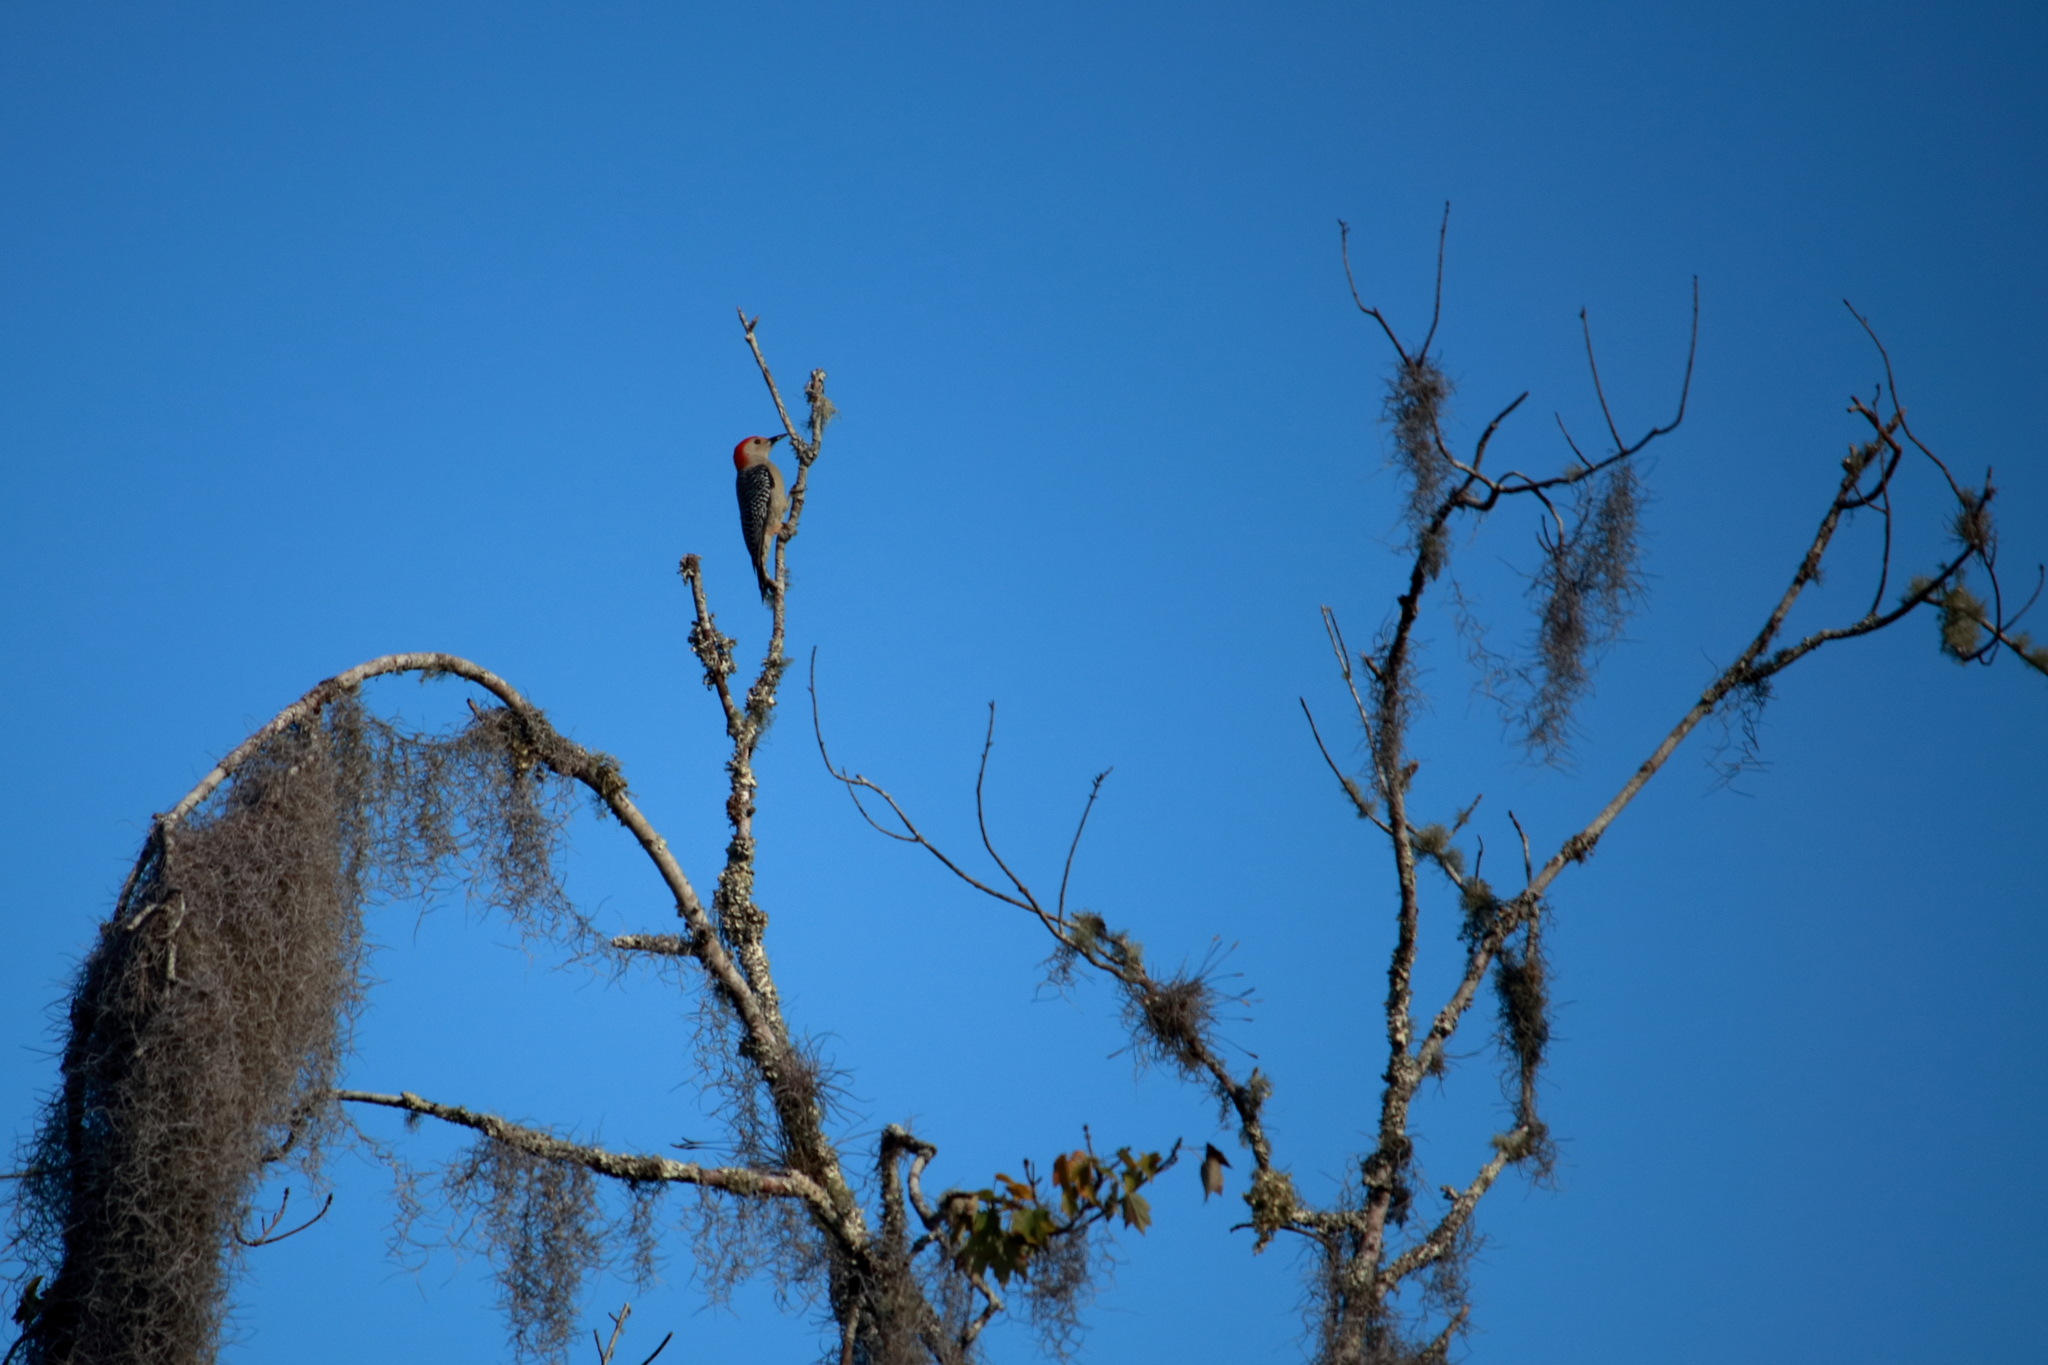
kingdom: Animalia
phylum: Chordata
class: Aves
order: Piciformes
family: Picidae
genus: Melanerpes
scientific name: Melanerpes carolinus
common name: Red-bellied woodpecker
